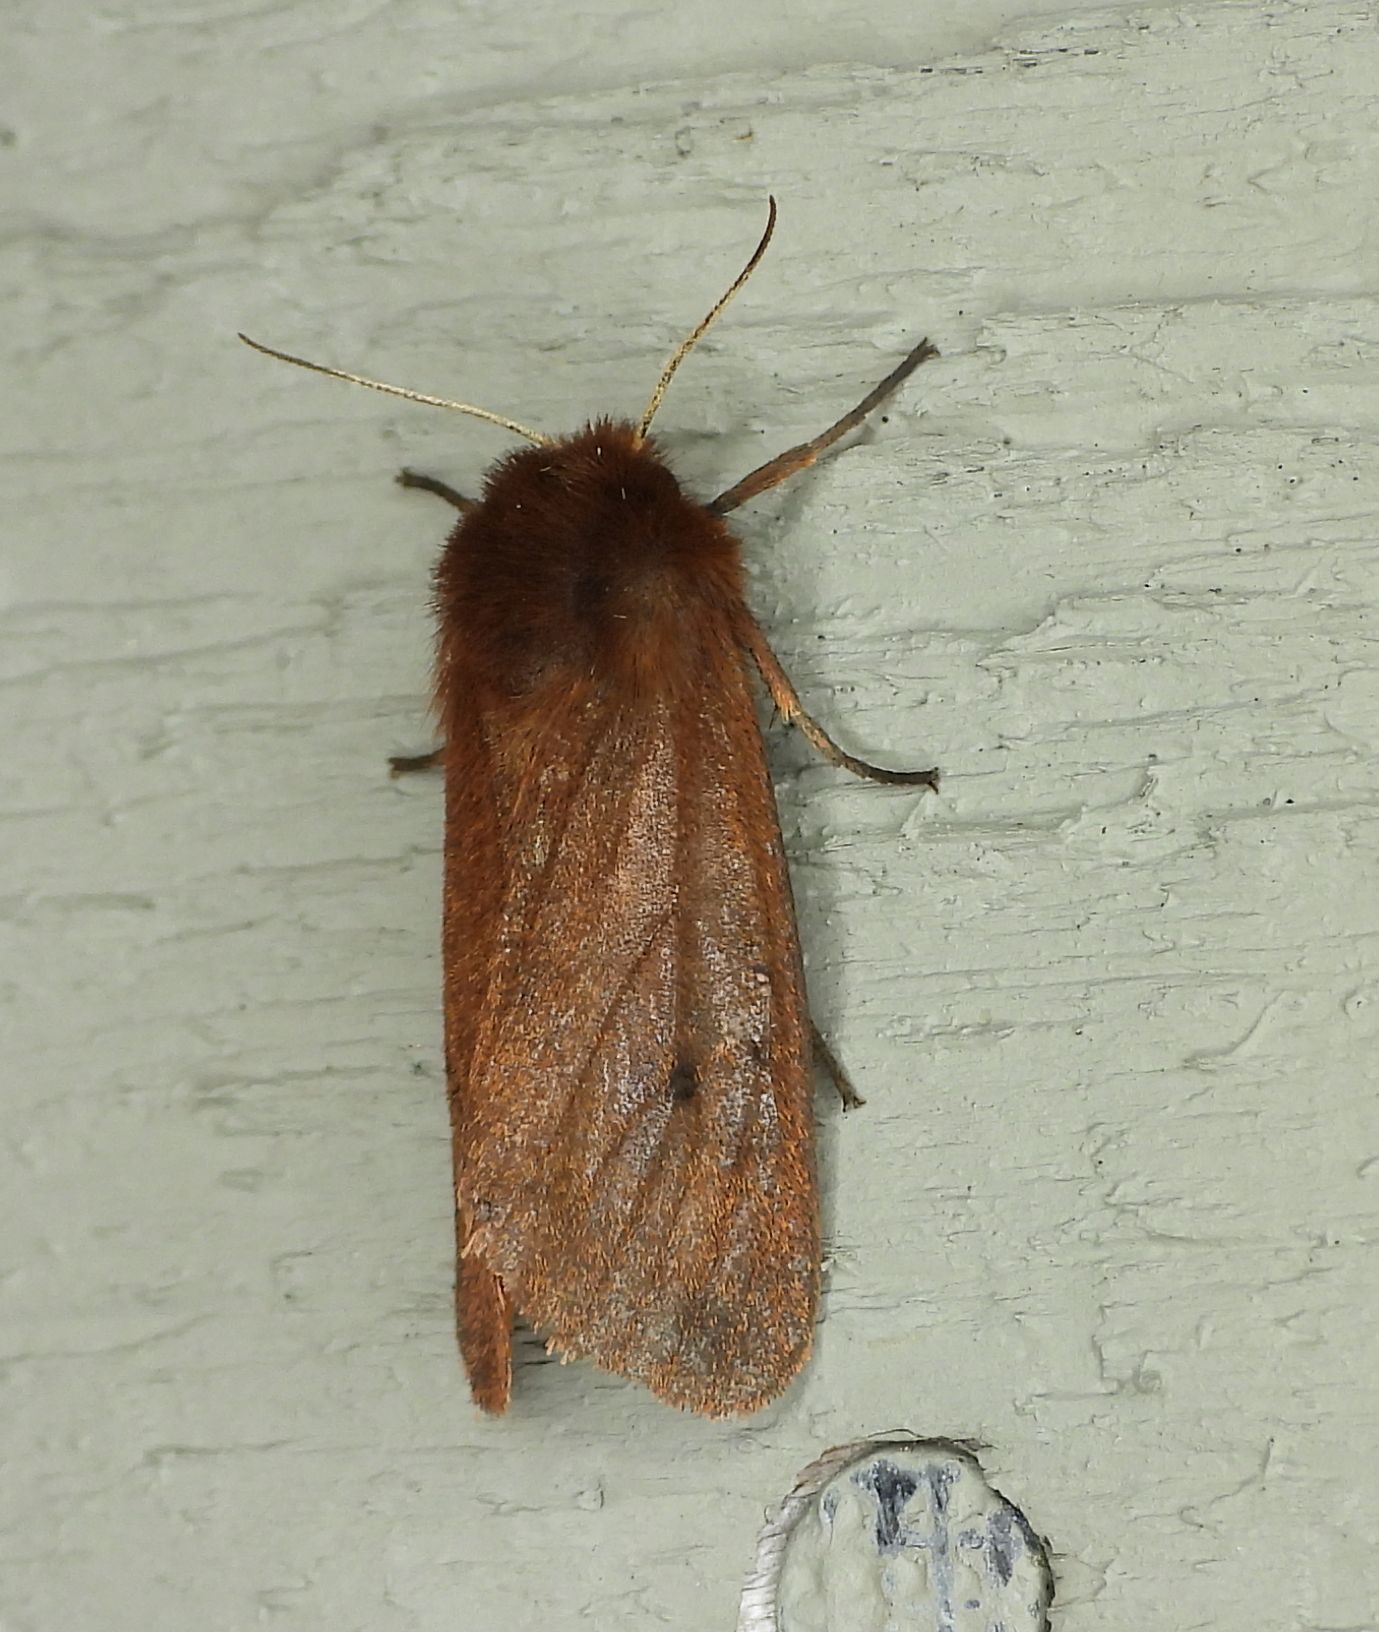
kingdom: Animalia
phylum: Arthropoda
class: Insecta
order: Lepidoptera
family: Erebidae
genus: Phragmatobia
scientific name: Phragmatobia fuliginosa
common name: Ruby tiger
